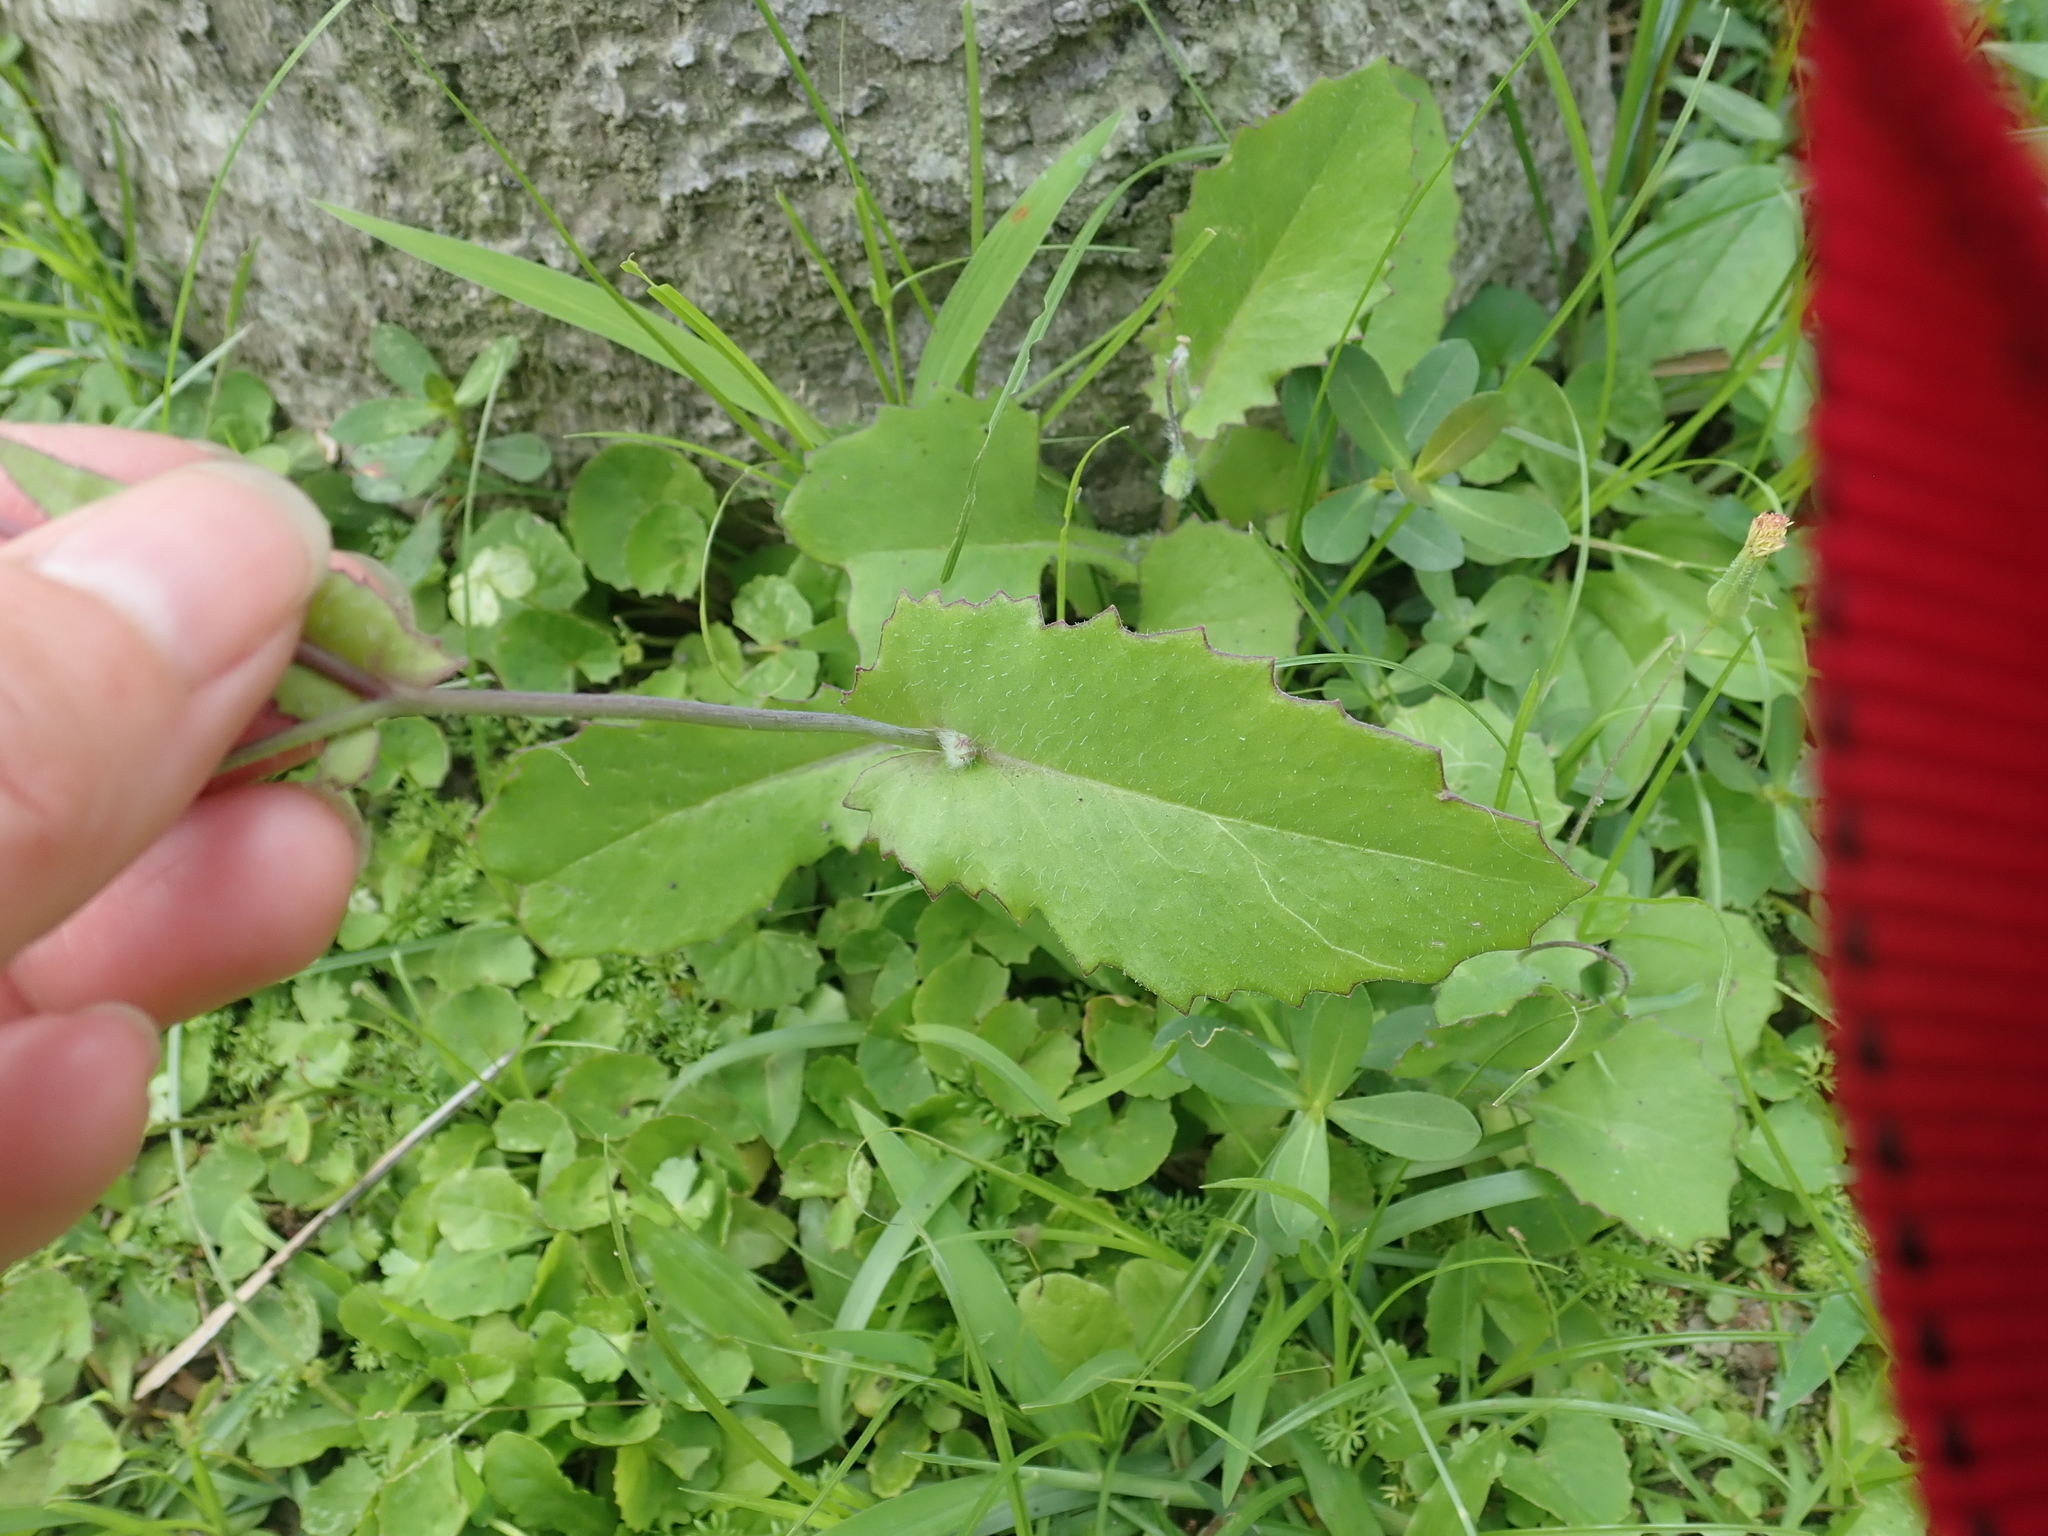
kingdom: Plantae
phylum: Tracheophyta
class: Magnoliopsida
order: Asterales
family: Asteraceae
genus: Emilia
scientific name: Emilia praetermissa
